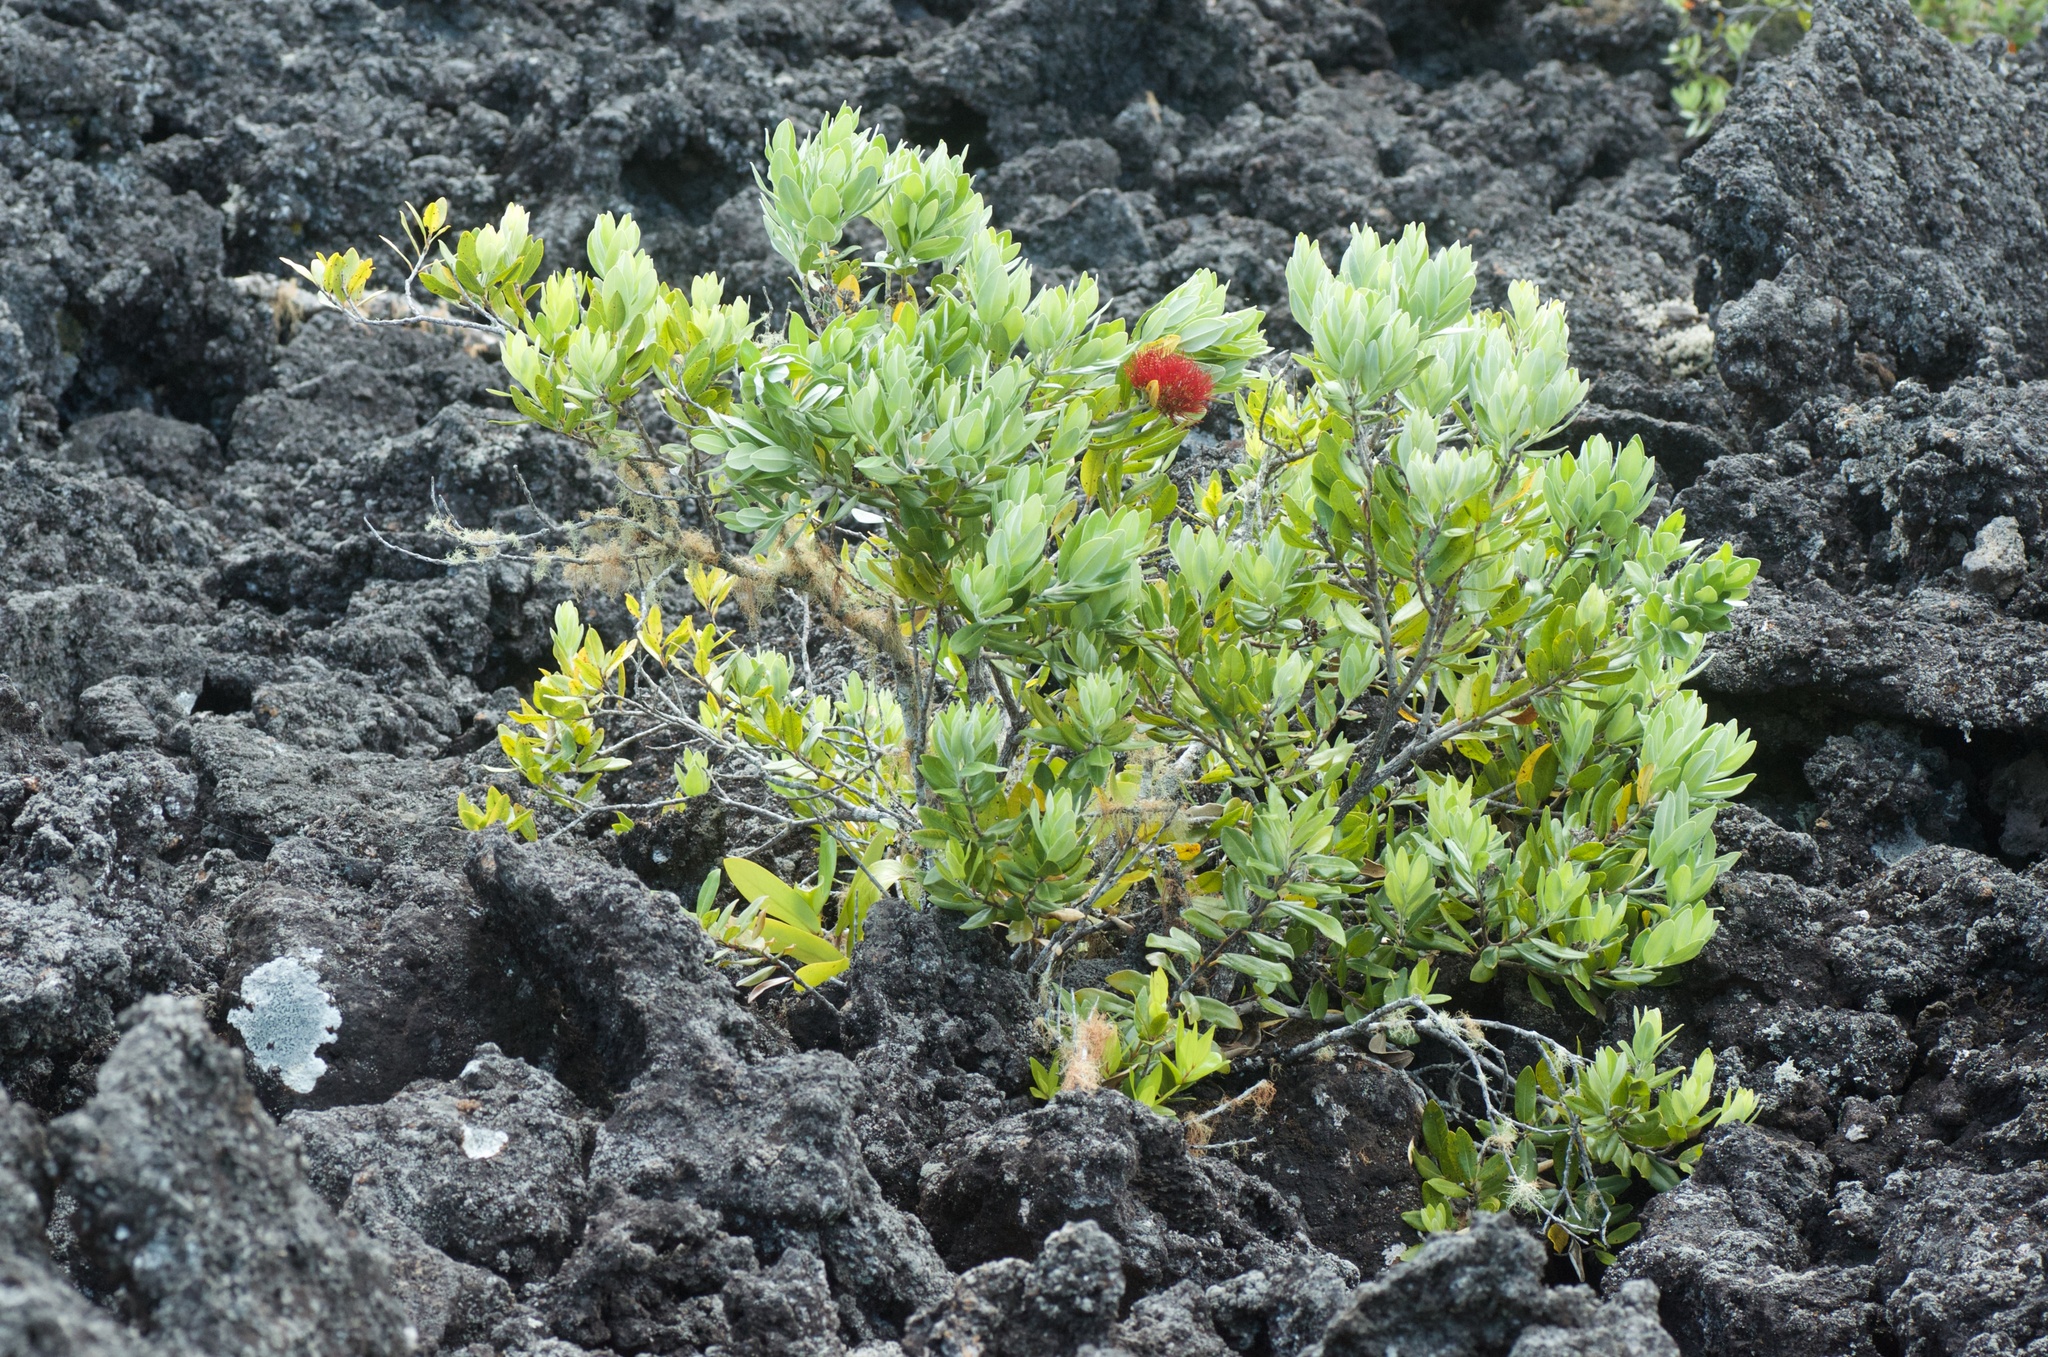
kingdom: Plantae
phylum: Tracheophyta
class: Magnoliopsida
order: Myrtales
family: Myrtaceae
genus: Metrosideros
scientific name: Metrosideros excelsa
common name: New zealand christmastree
